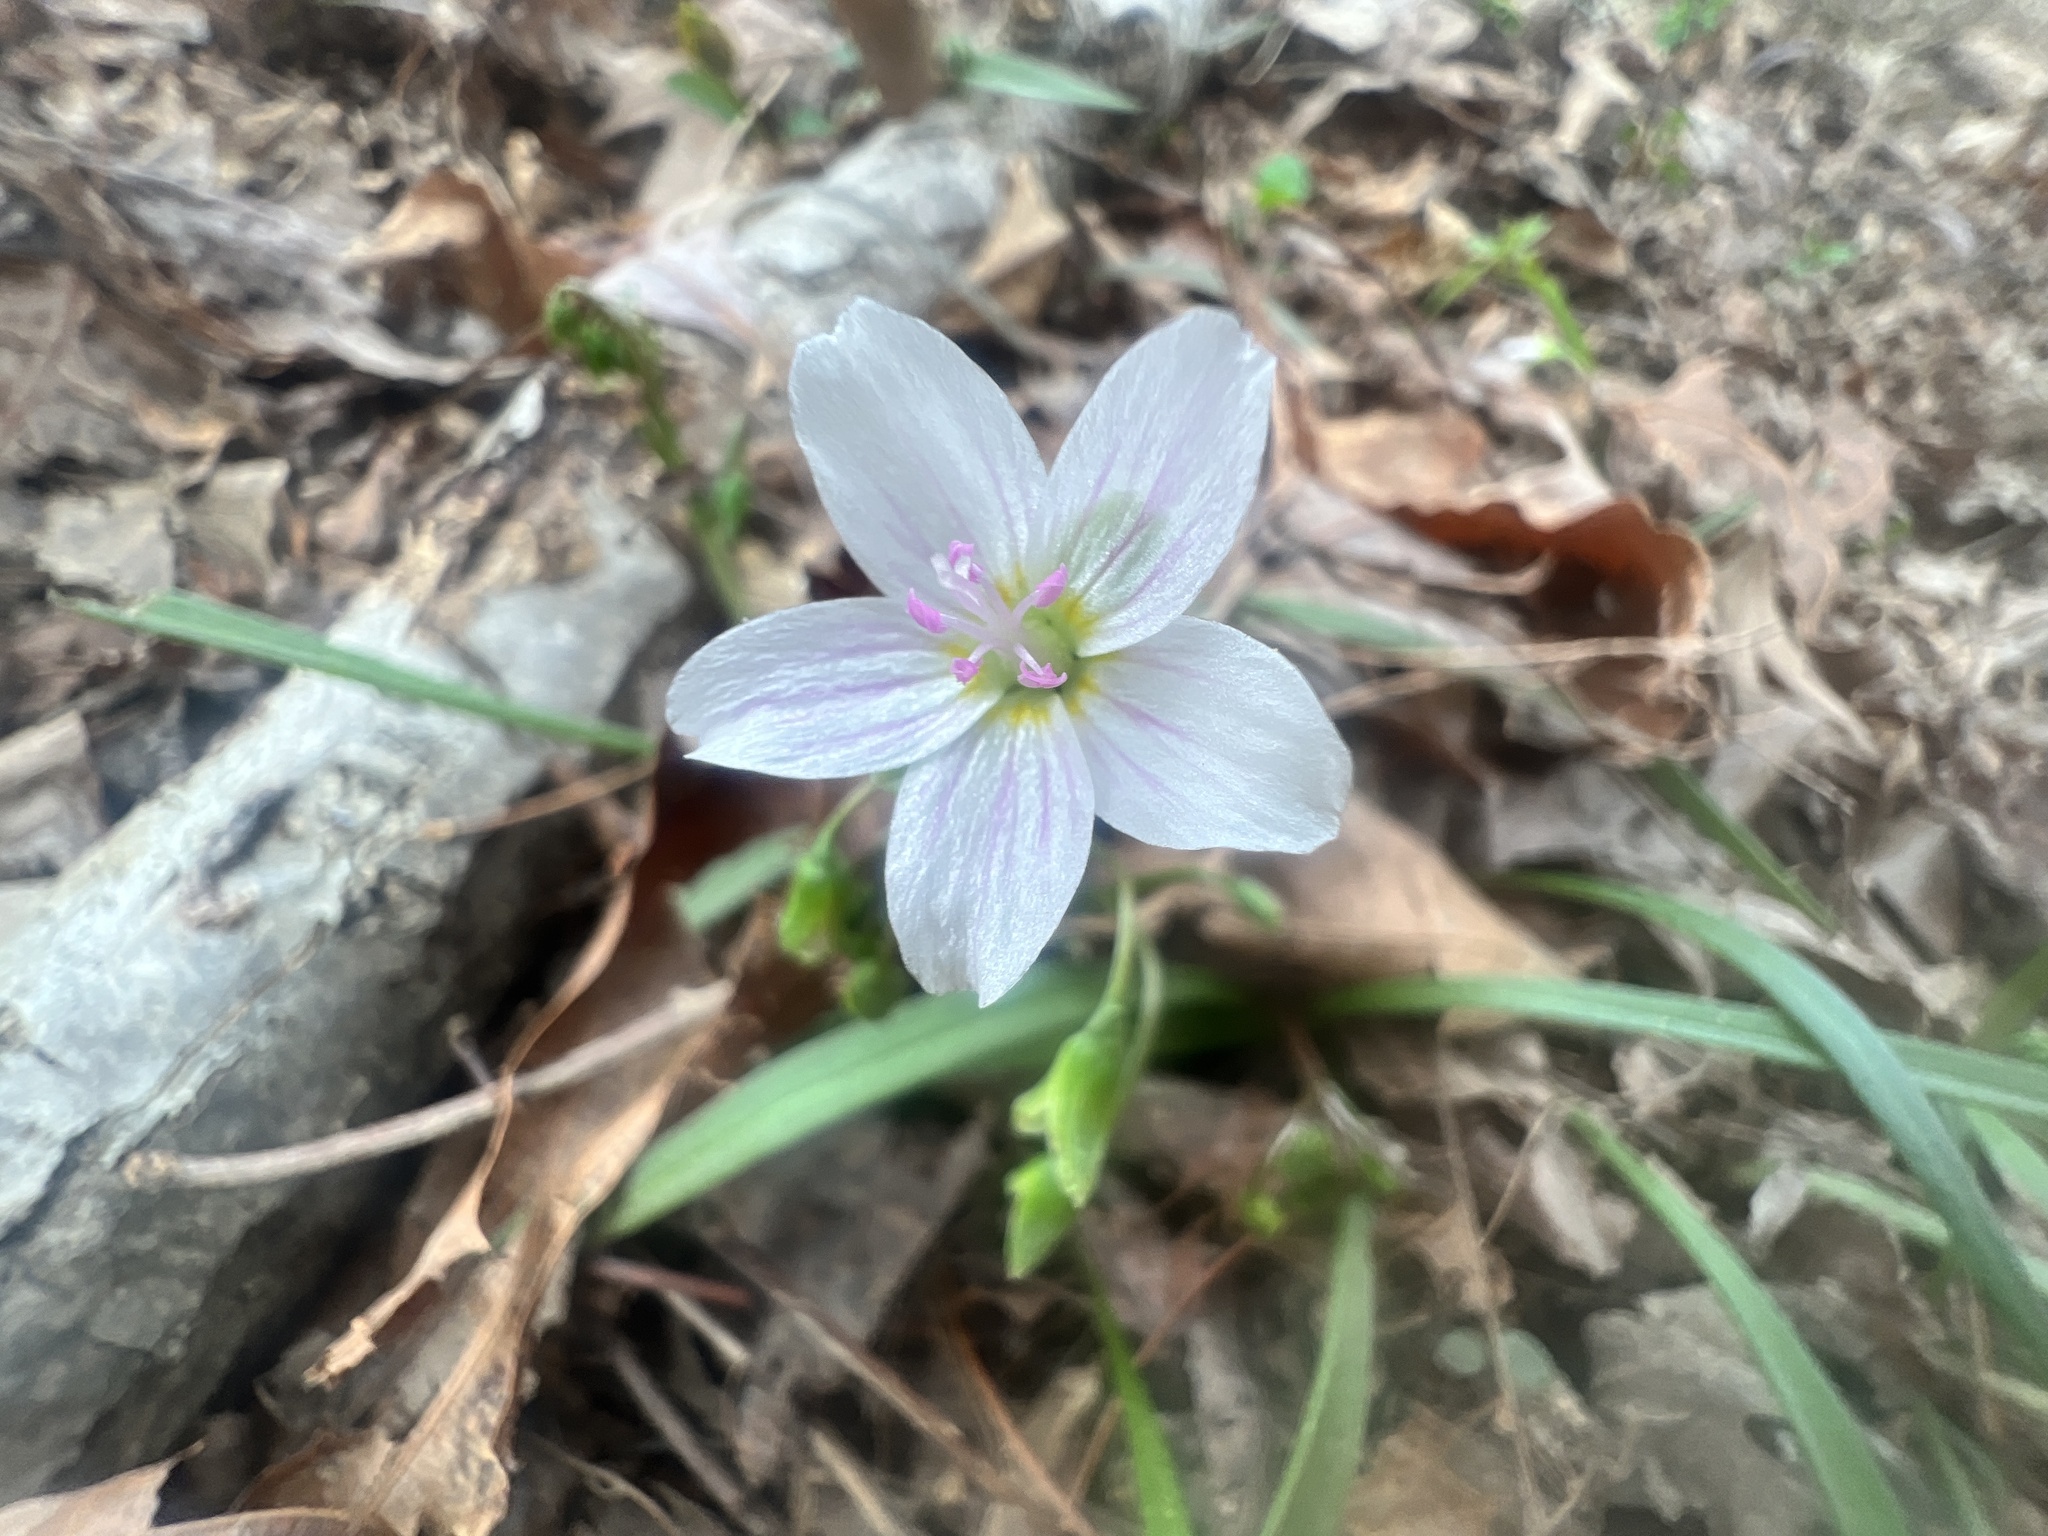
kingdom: Plantae
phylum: Tracheophyta
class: Magnoliopsida
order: Caryophyllales
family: Montiaceae
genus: Claytonia
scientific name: Claytonia virginica
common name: Virginia springbeauty
